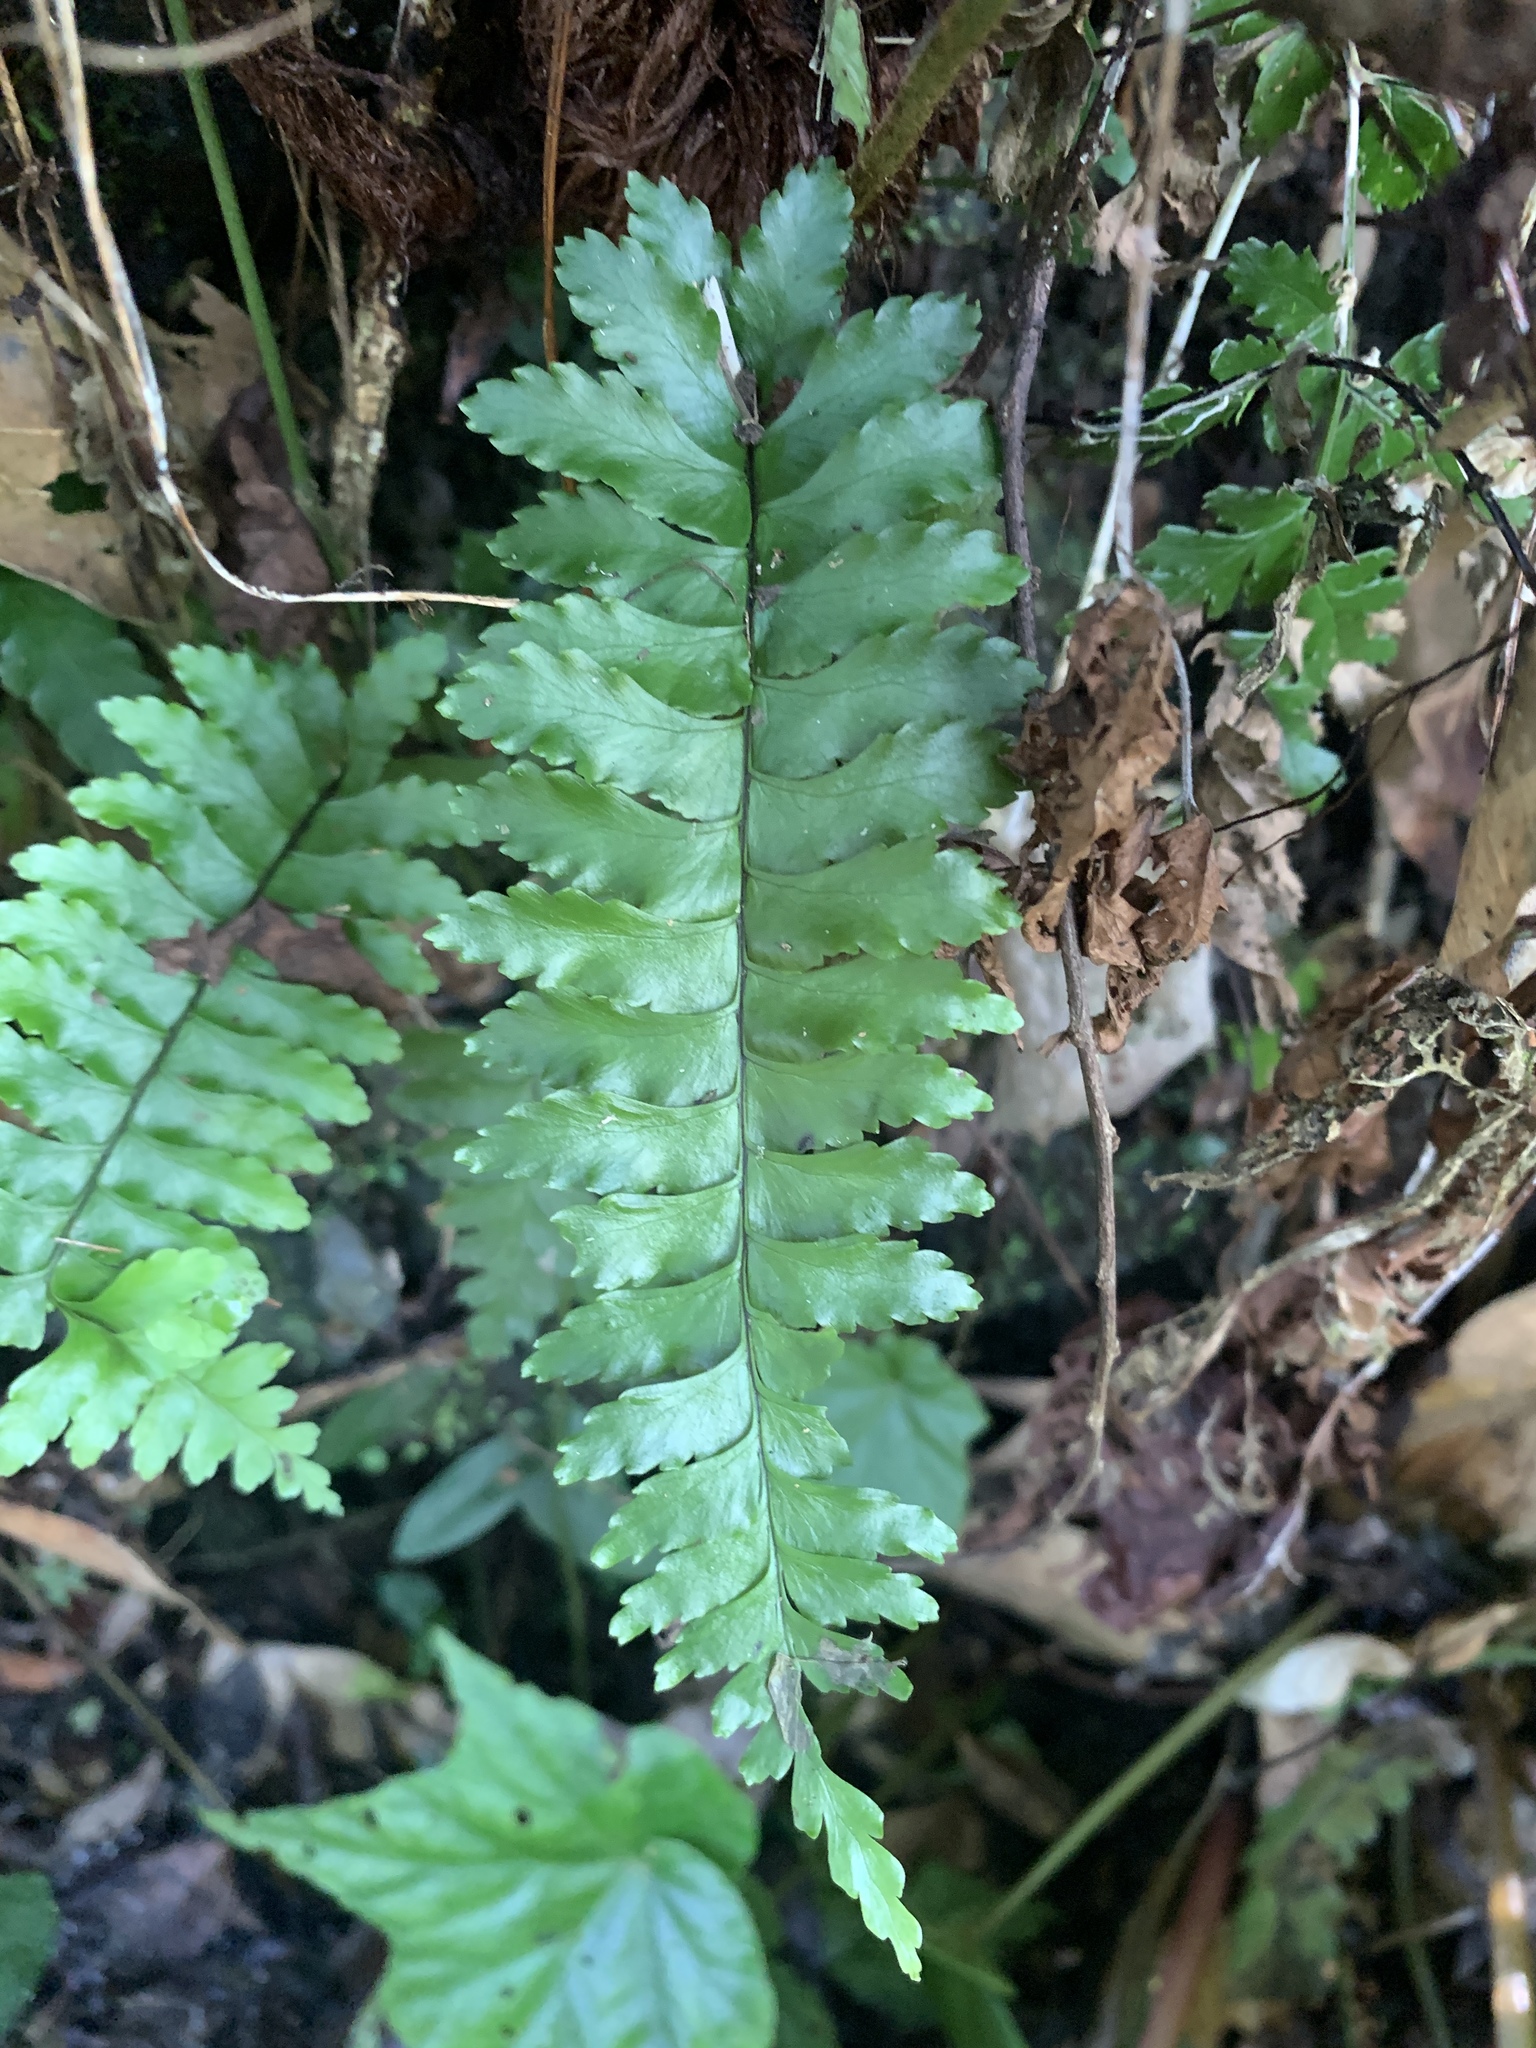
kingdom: Plantae
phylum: Tracheophyta
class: Polypodiopsida
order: Polypodiales
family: Aspleniaceae
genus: Hymenasplenium
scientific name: Hymenasplenium apogamum
